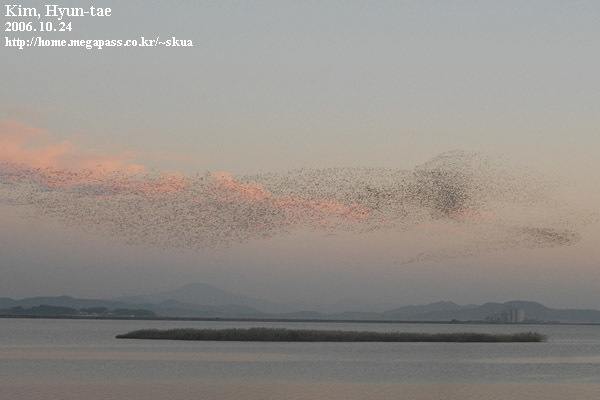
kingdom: Animalia
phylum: Chordata
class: Aves
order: Anseriformes
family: Anatidae
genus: Sibirionetta
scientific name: Sibirionetta formosa
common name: Baikal teal
